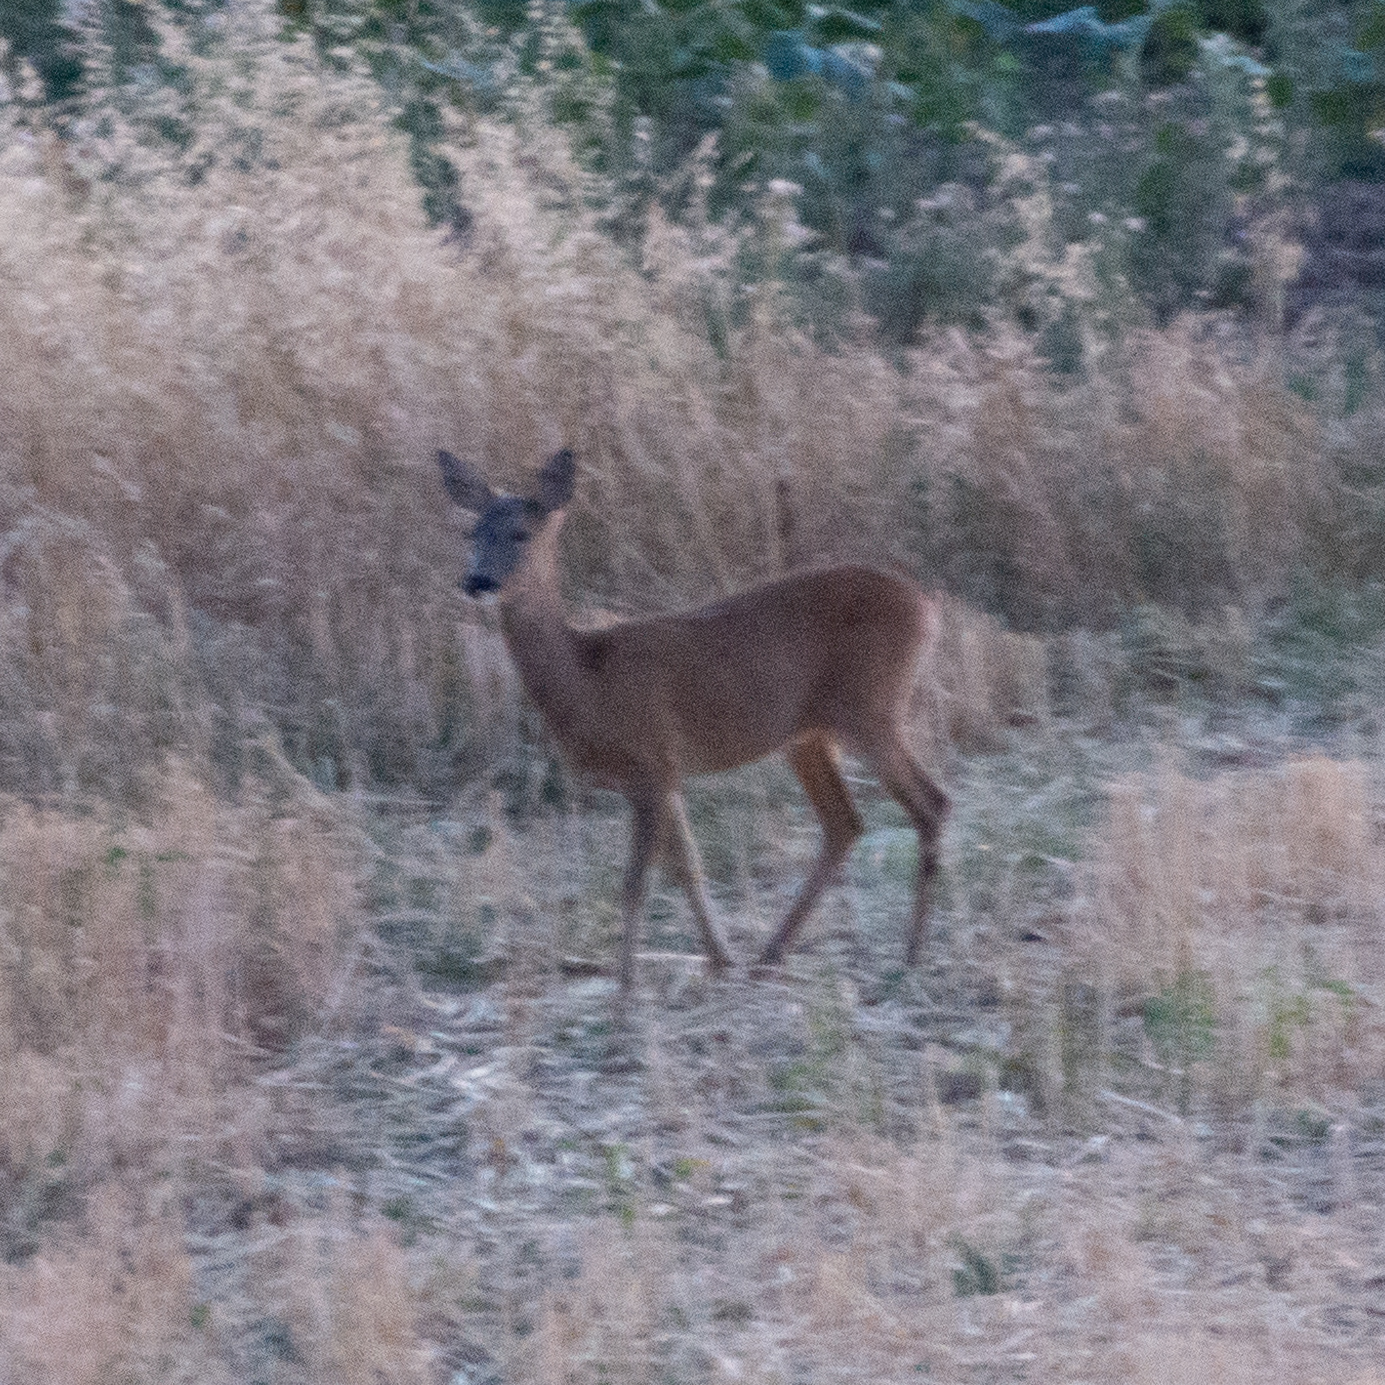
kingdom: Animalia
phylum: Chordata
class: Mammalia
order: Artiodactyla
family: Cervidae
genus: Capreolus
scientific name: Capreolus capreolus
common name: Western roe deer
